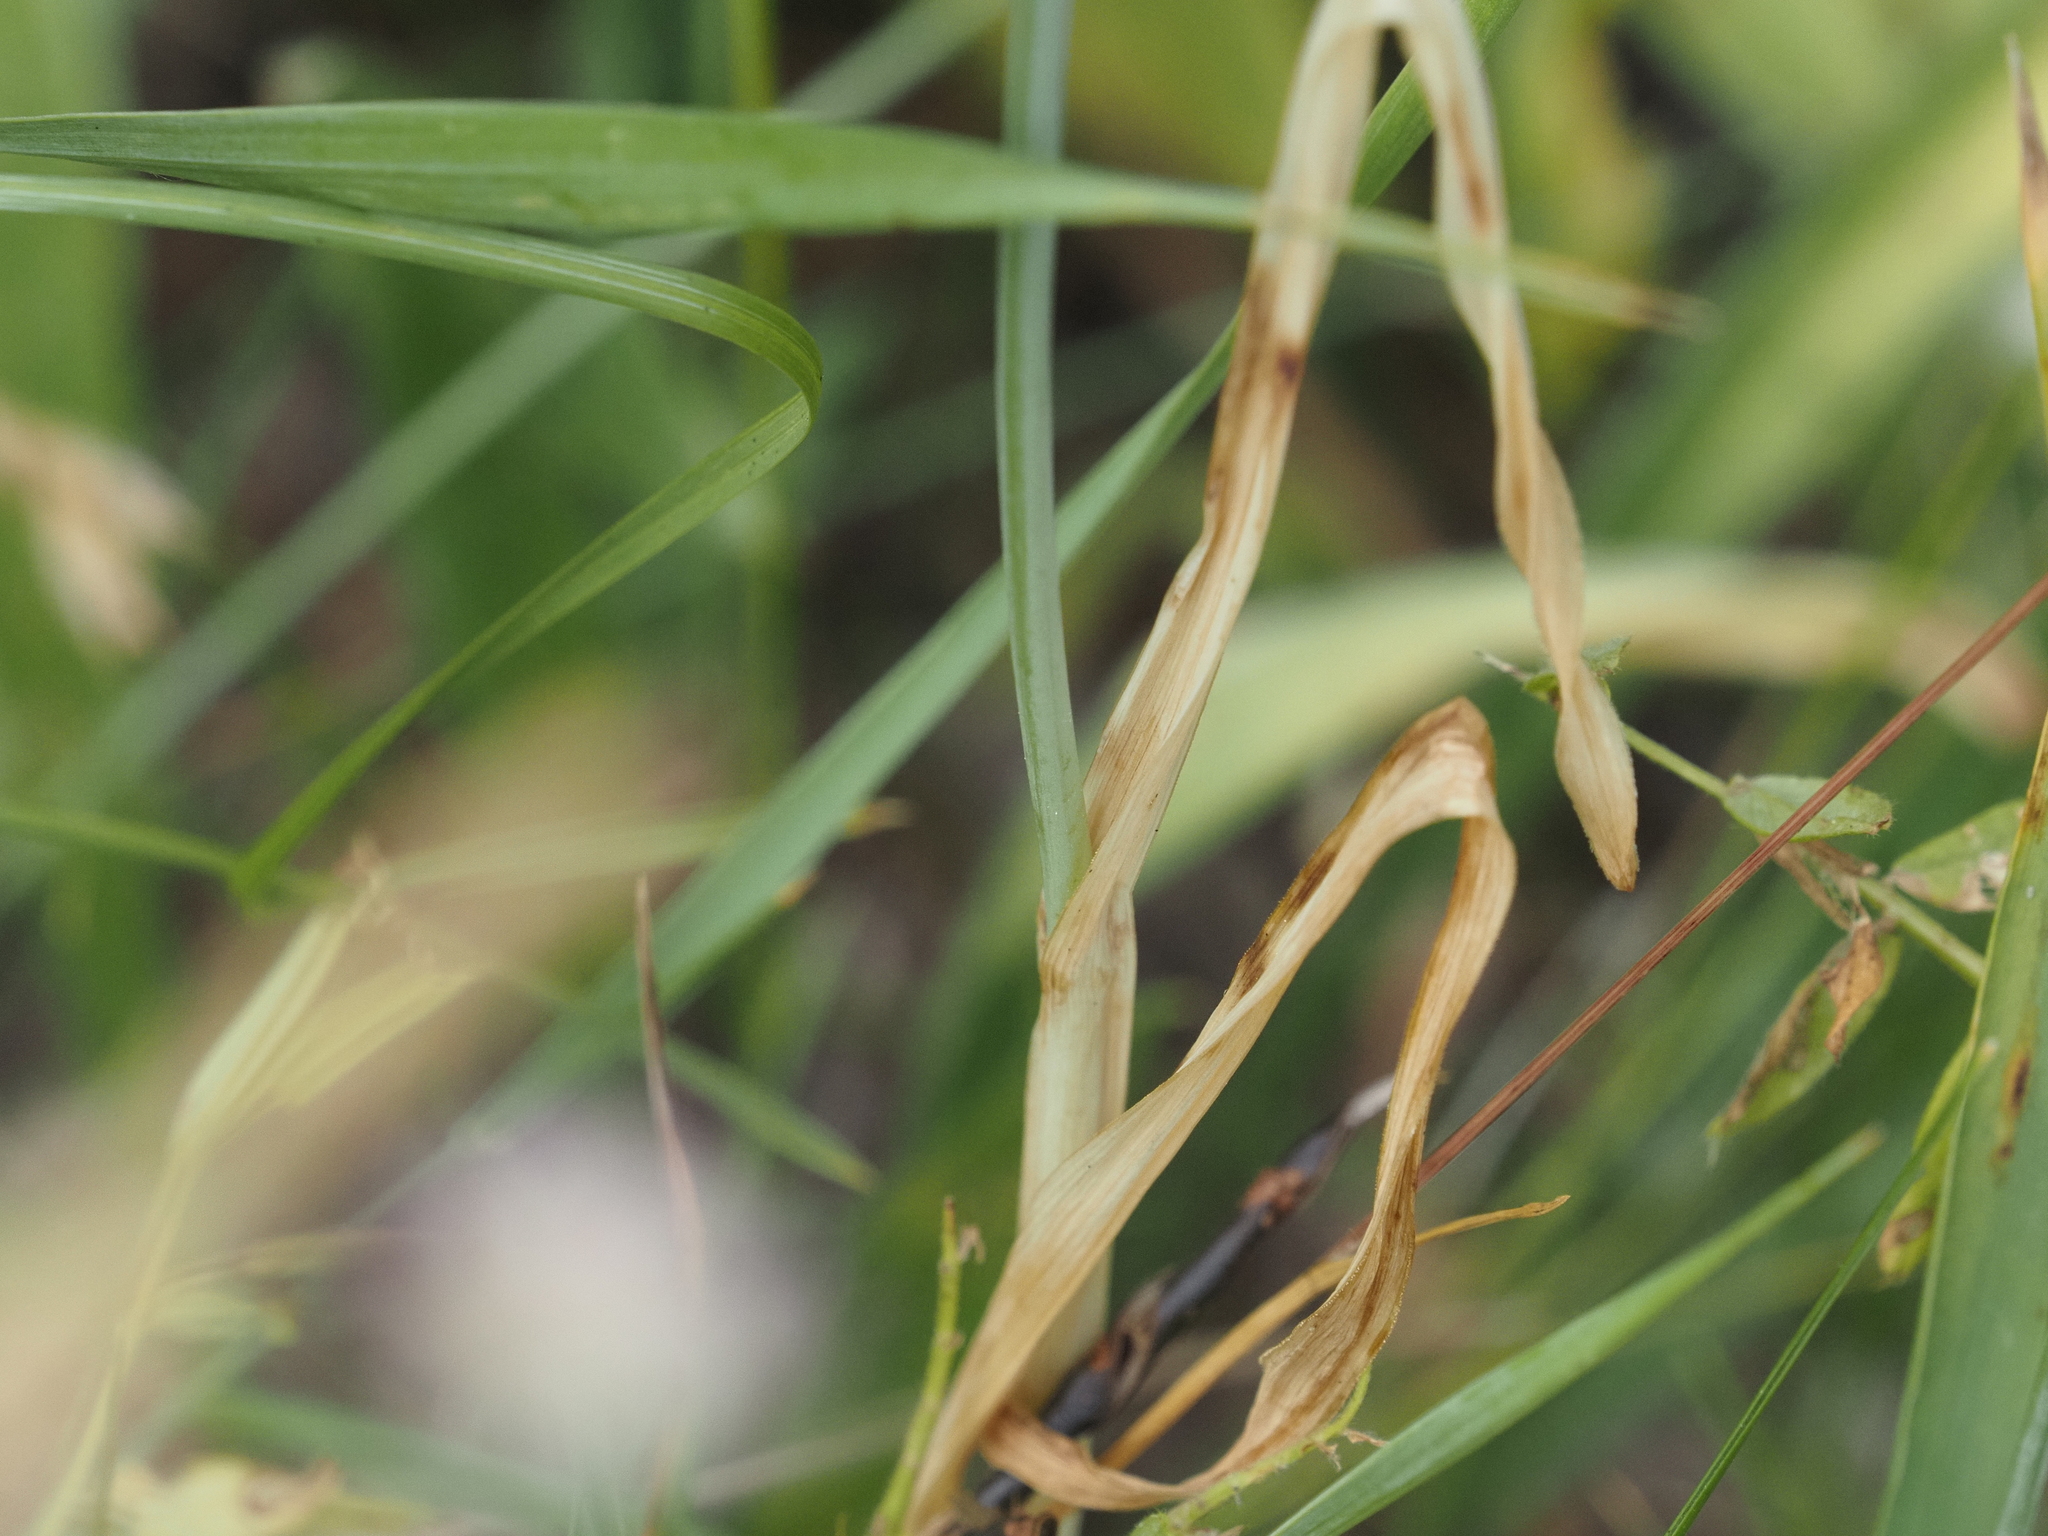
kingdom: Plantae
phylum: Tracheophyta
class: Liliopsida
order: Asparagales
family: Amaryllidaceae
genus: Allium
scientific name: Allium scorodoprasum
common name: Sand leek
